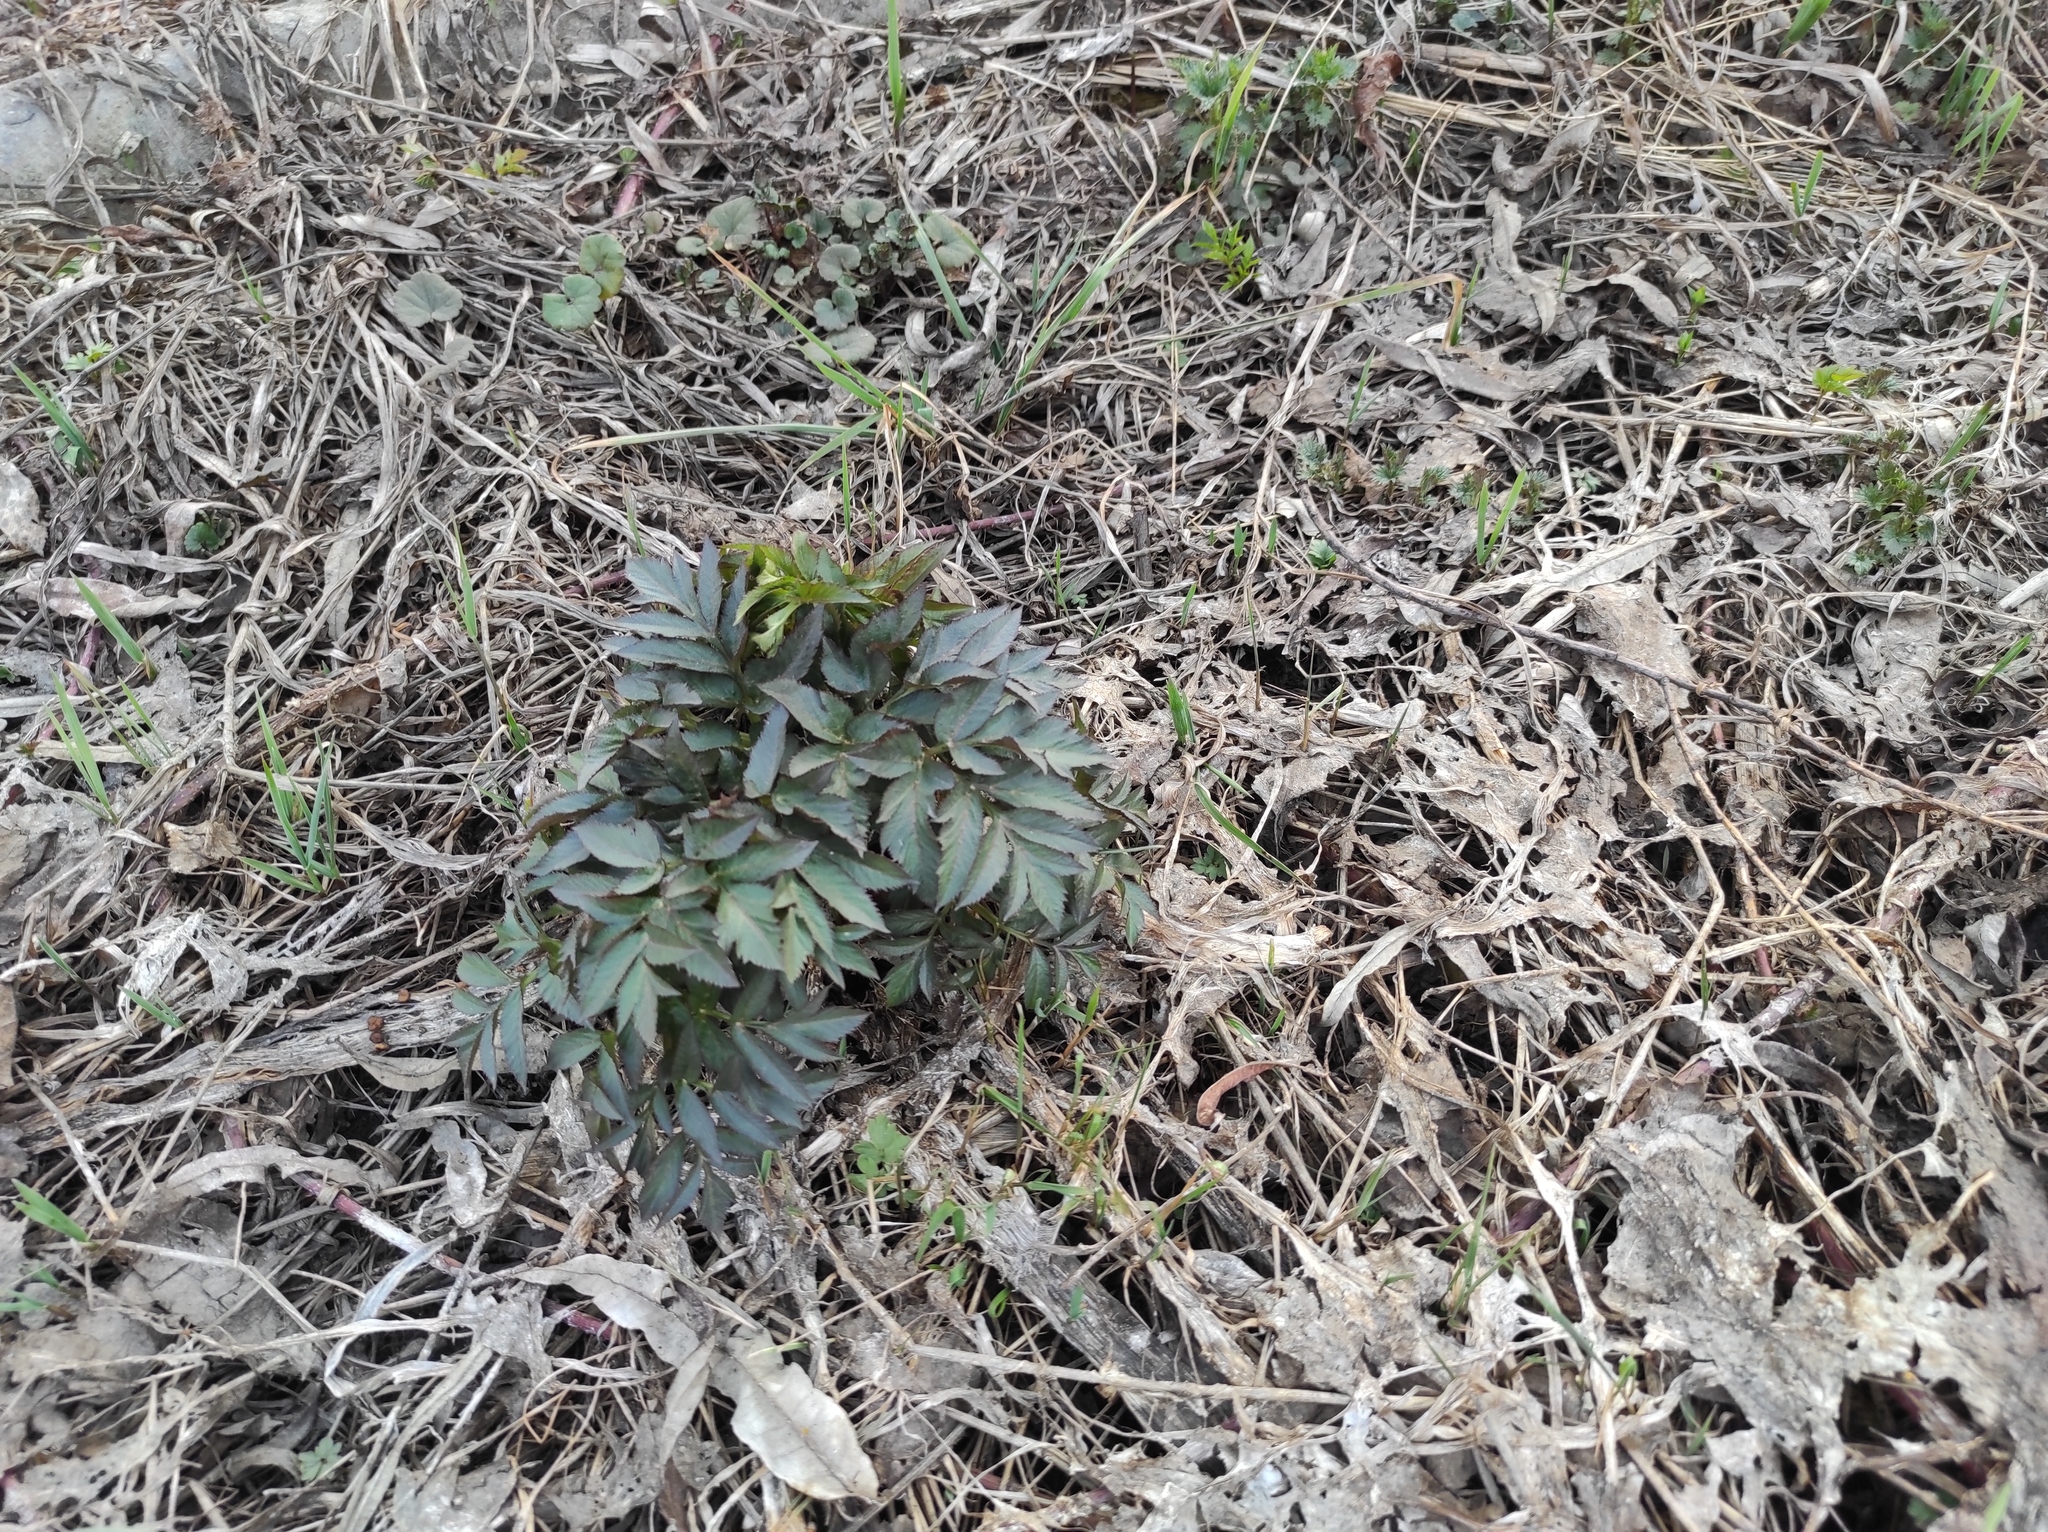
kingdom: Plantae
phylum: Tracheophyta
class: Magnoliopsida
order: Apiales
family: Apiaceae
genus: Angelica
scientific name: Angelica decurrens
